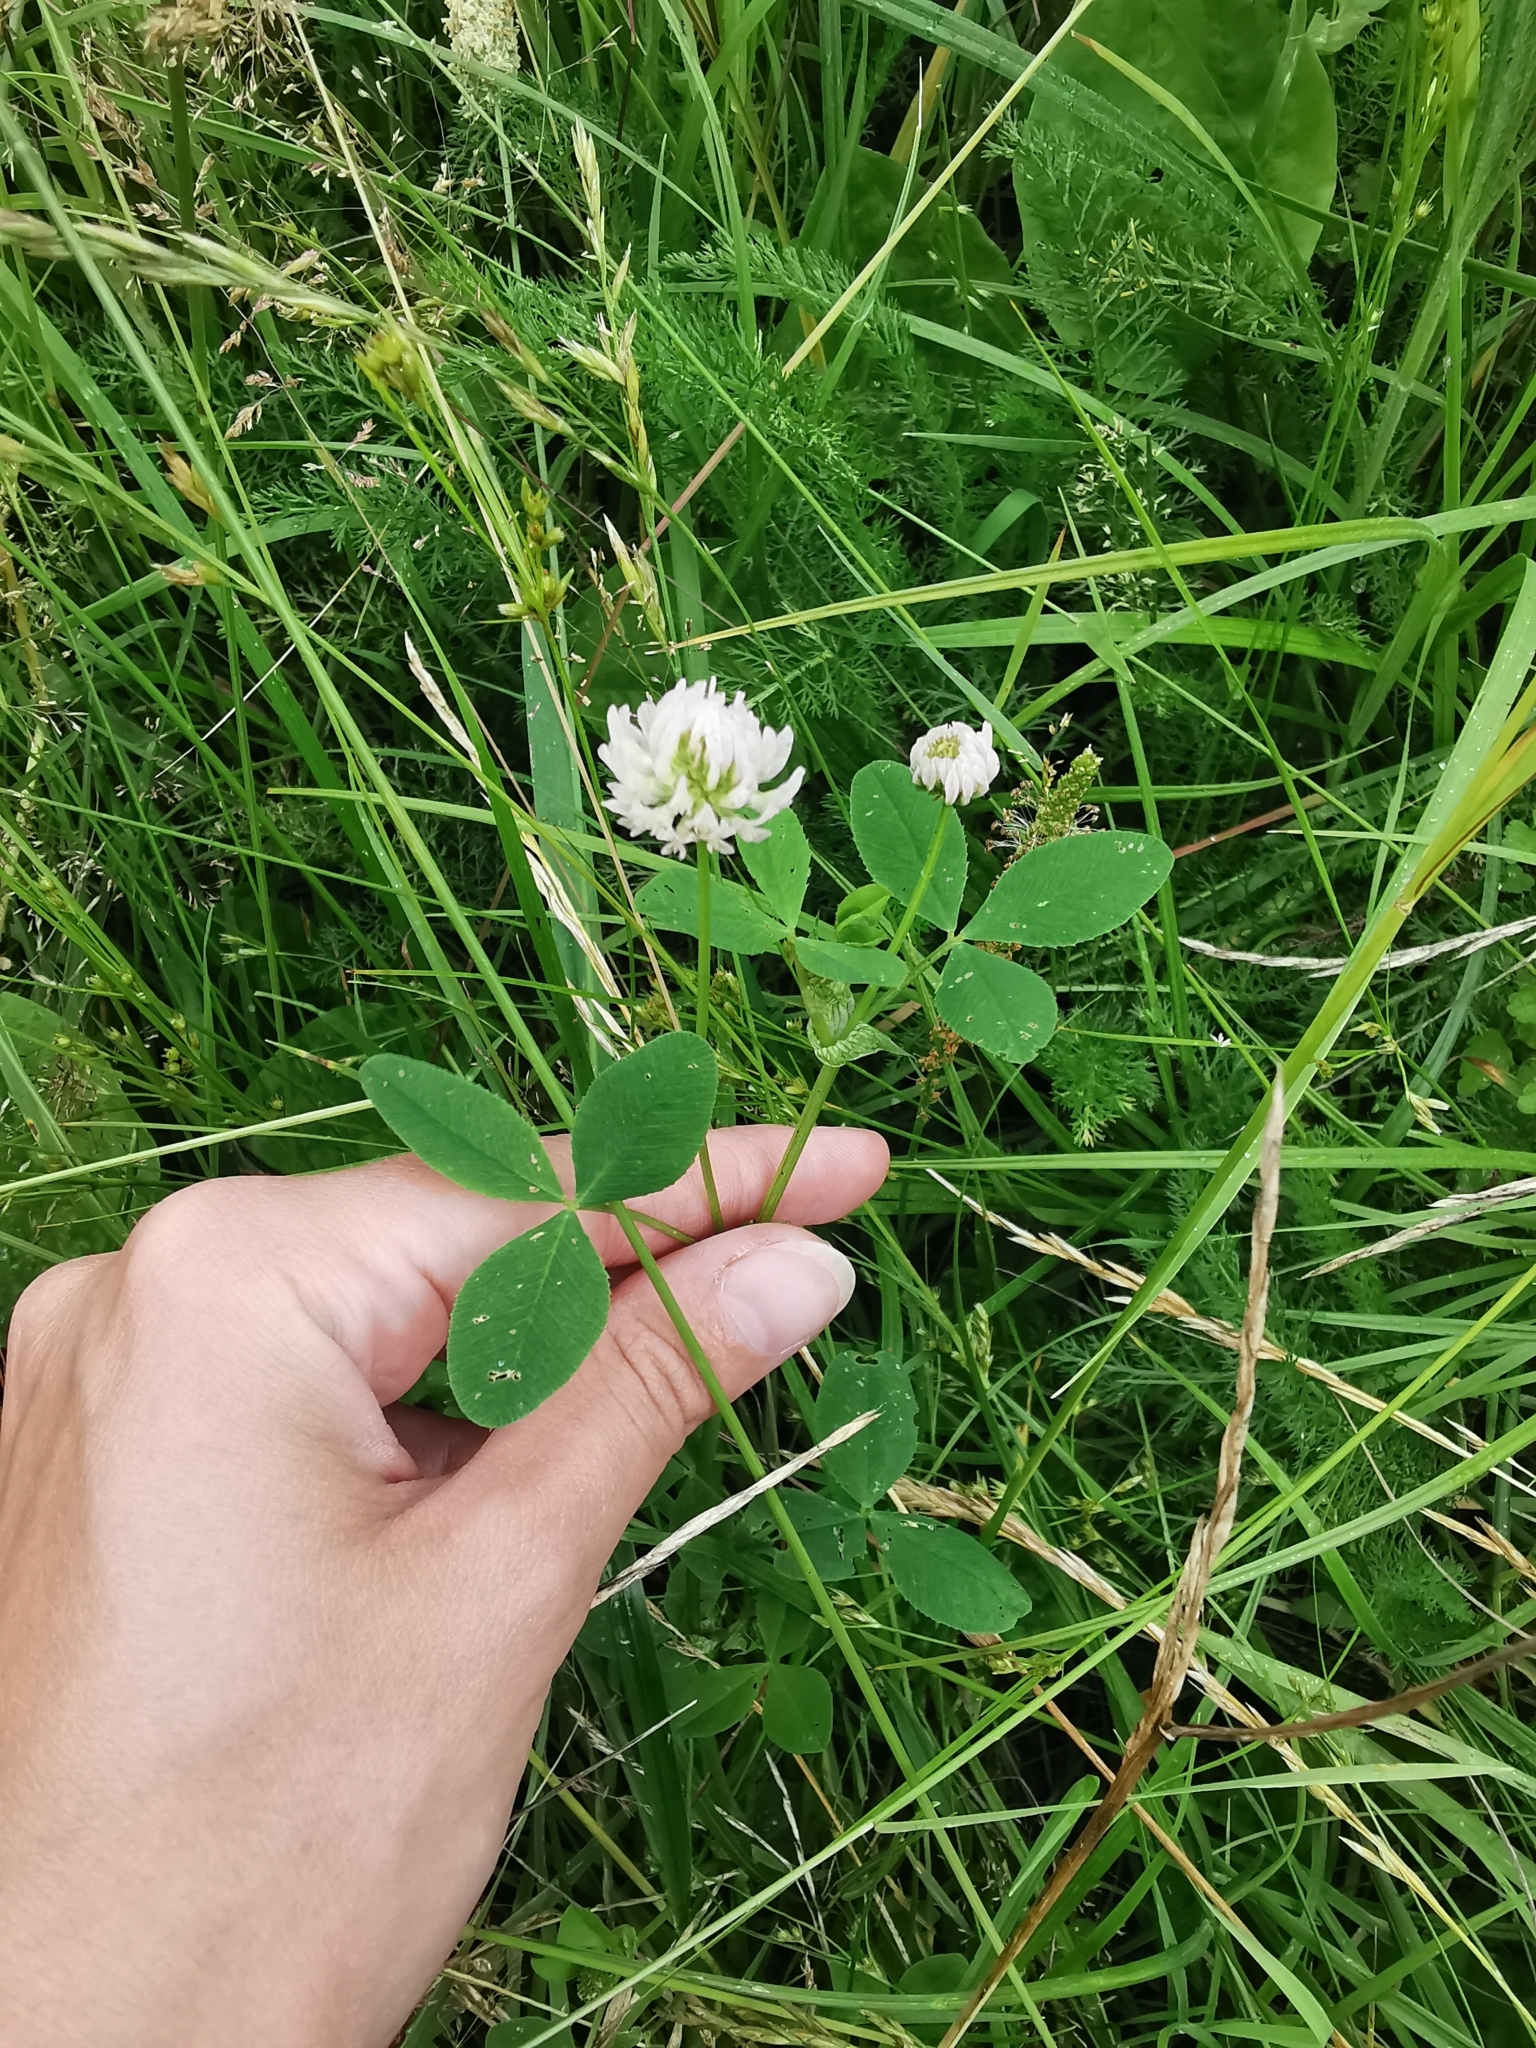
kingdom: Plantae
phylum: Tracheophyta
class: Magnoliopsida
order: Fabales
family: Fabaceae
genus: Trifolium
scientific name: Trifolium hybridum
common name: Alsike clover
